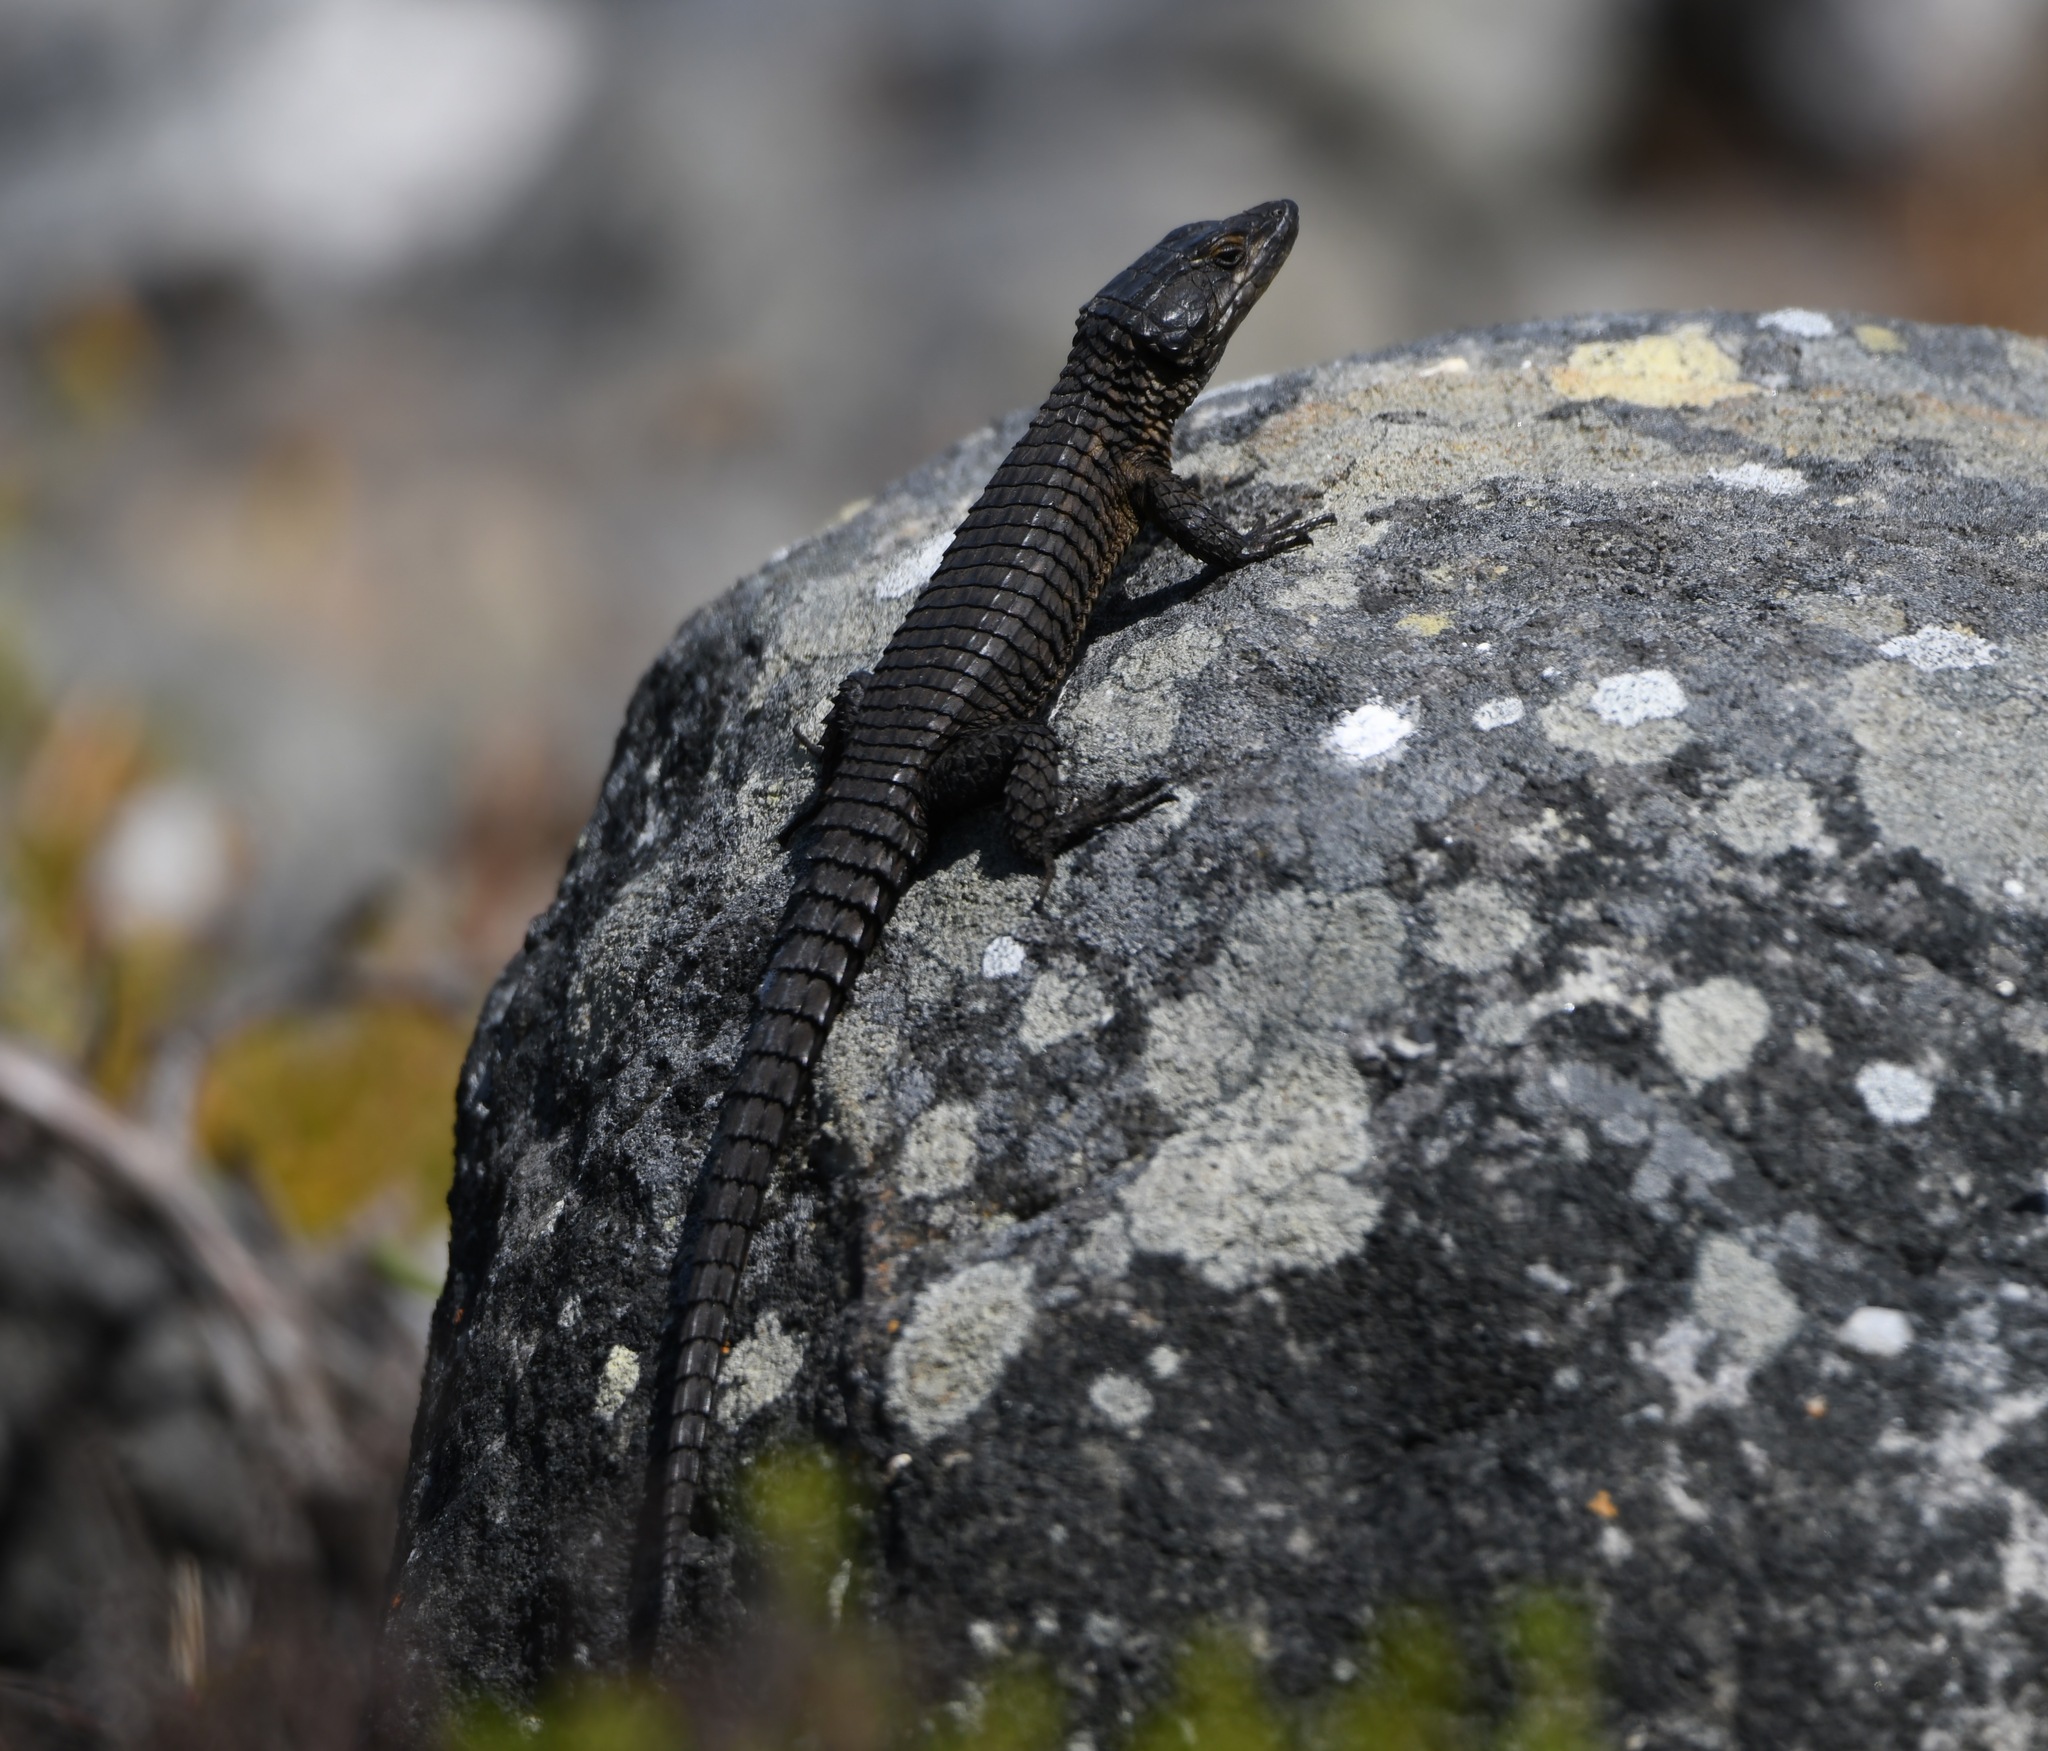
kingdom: Animalia
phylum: Chordata
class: Squamata
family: Cordylidae
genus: Cordylus
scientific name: Cordylus niger
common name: Black girdled lizard
